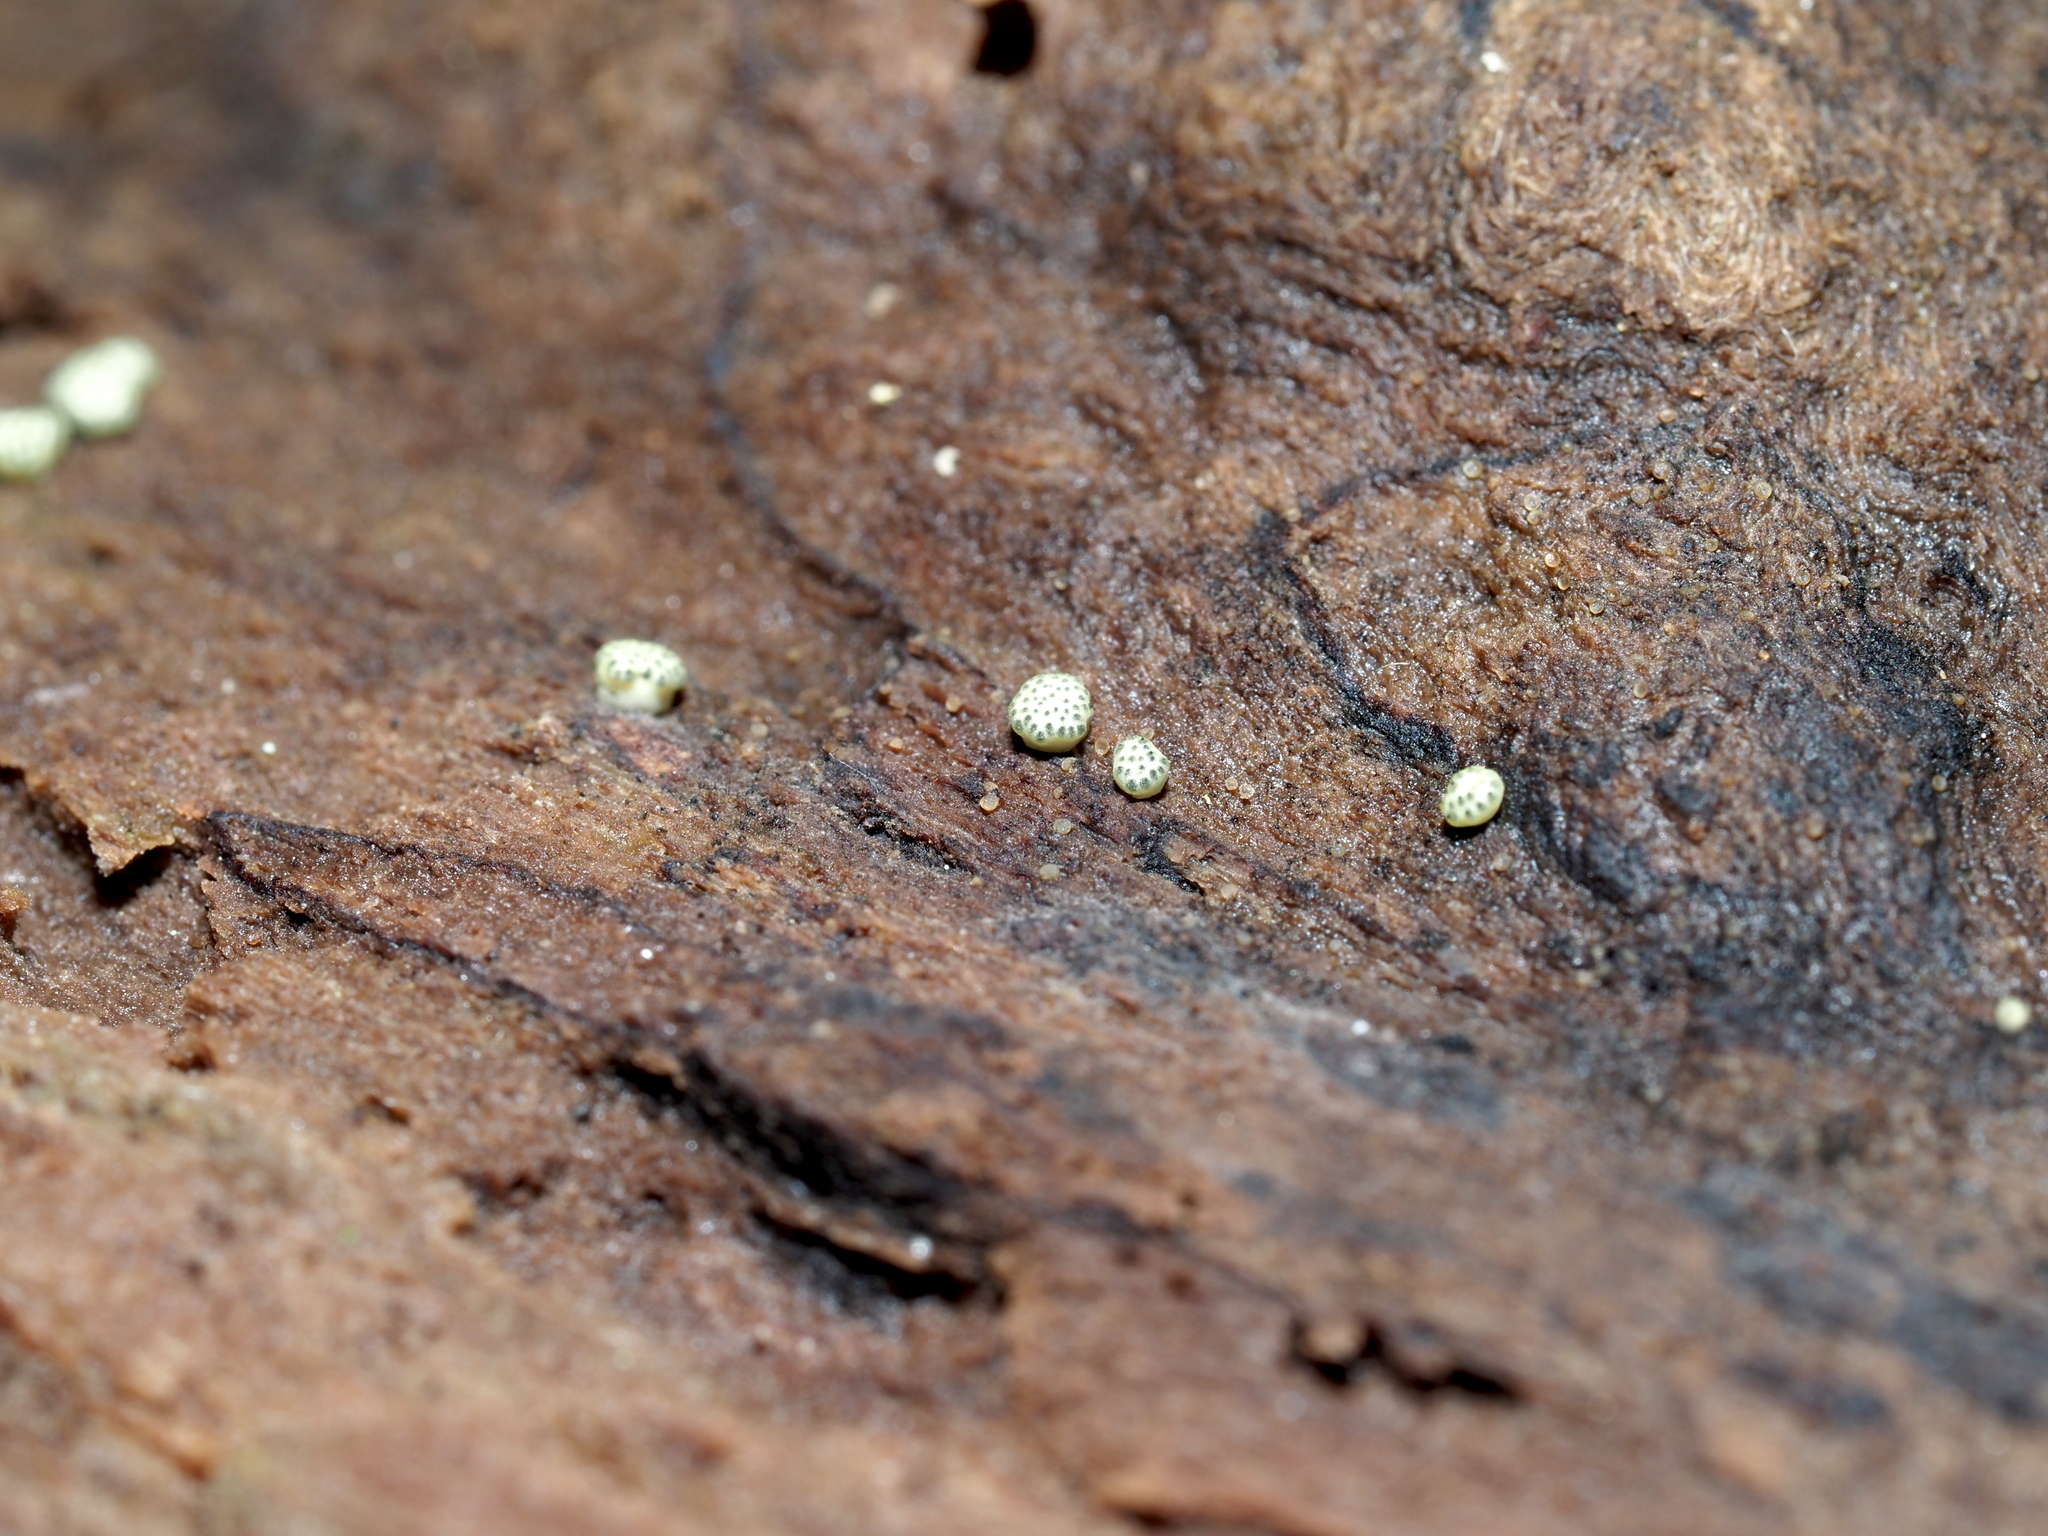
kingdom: Fungi
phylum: Ascomycota
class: Sordariomycetes
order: Hypocreales
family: Hypocreaceae
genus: Trichoderma
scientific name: Trichoderma gelatinosum
